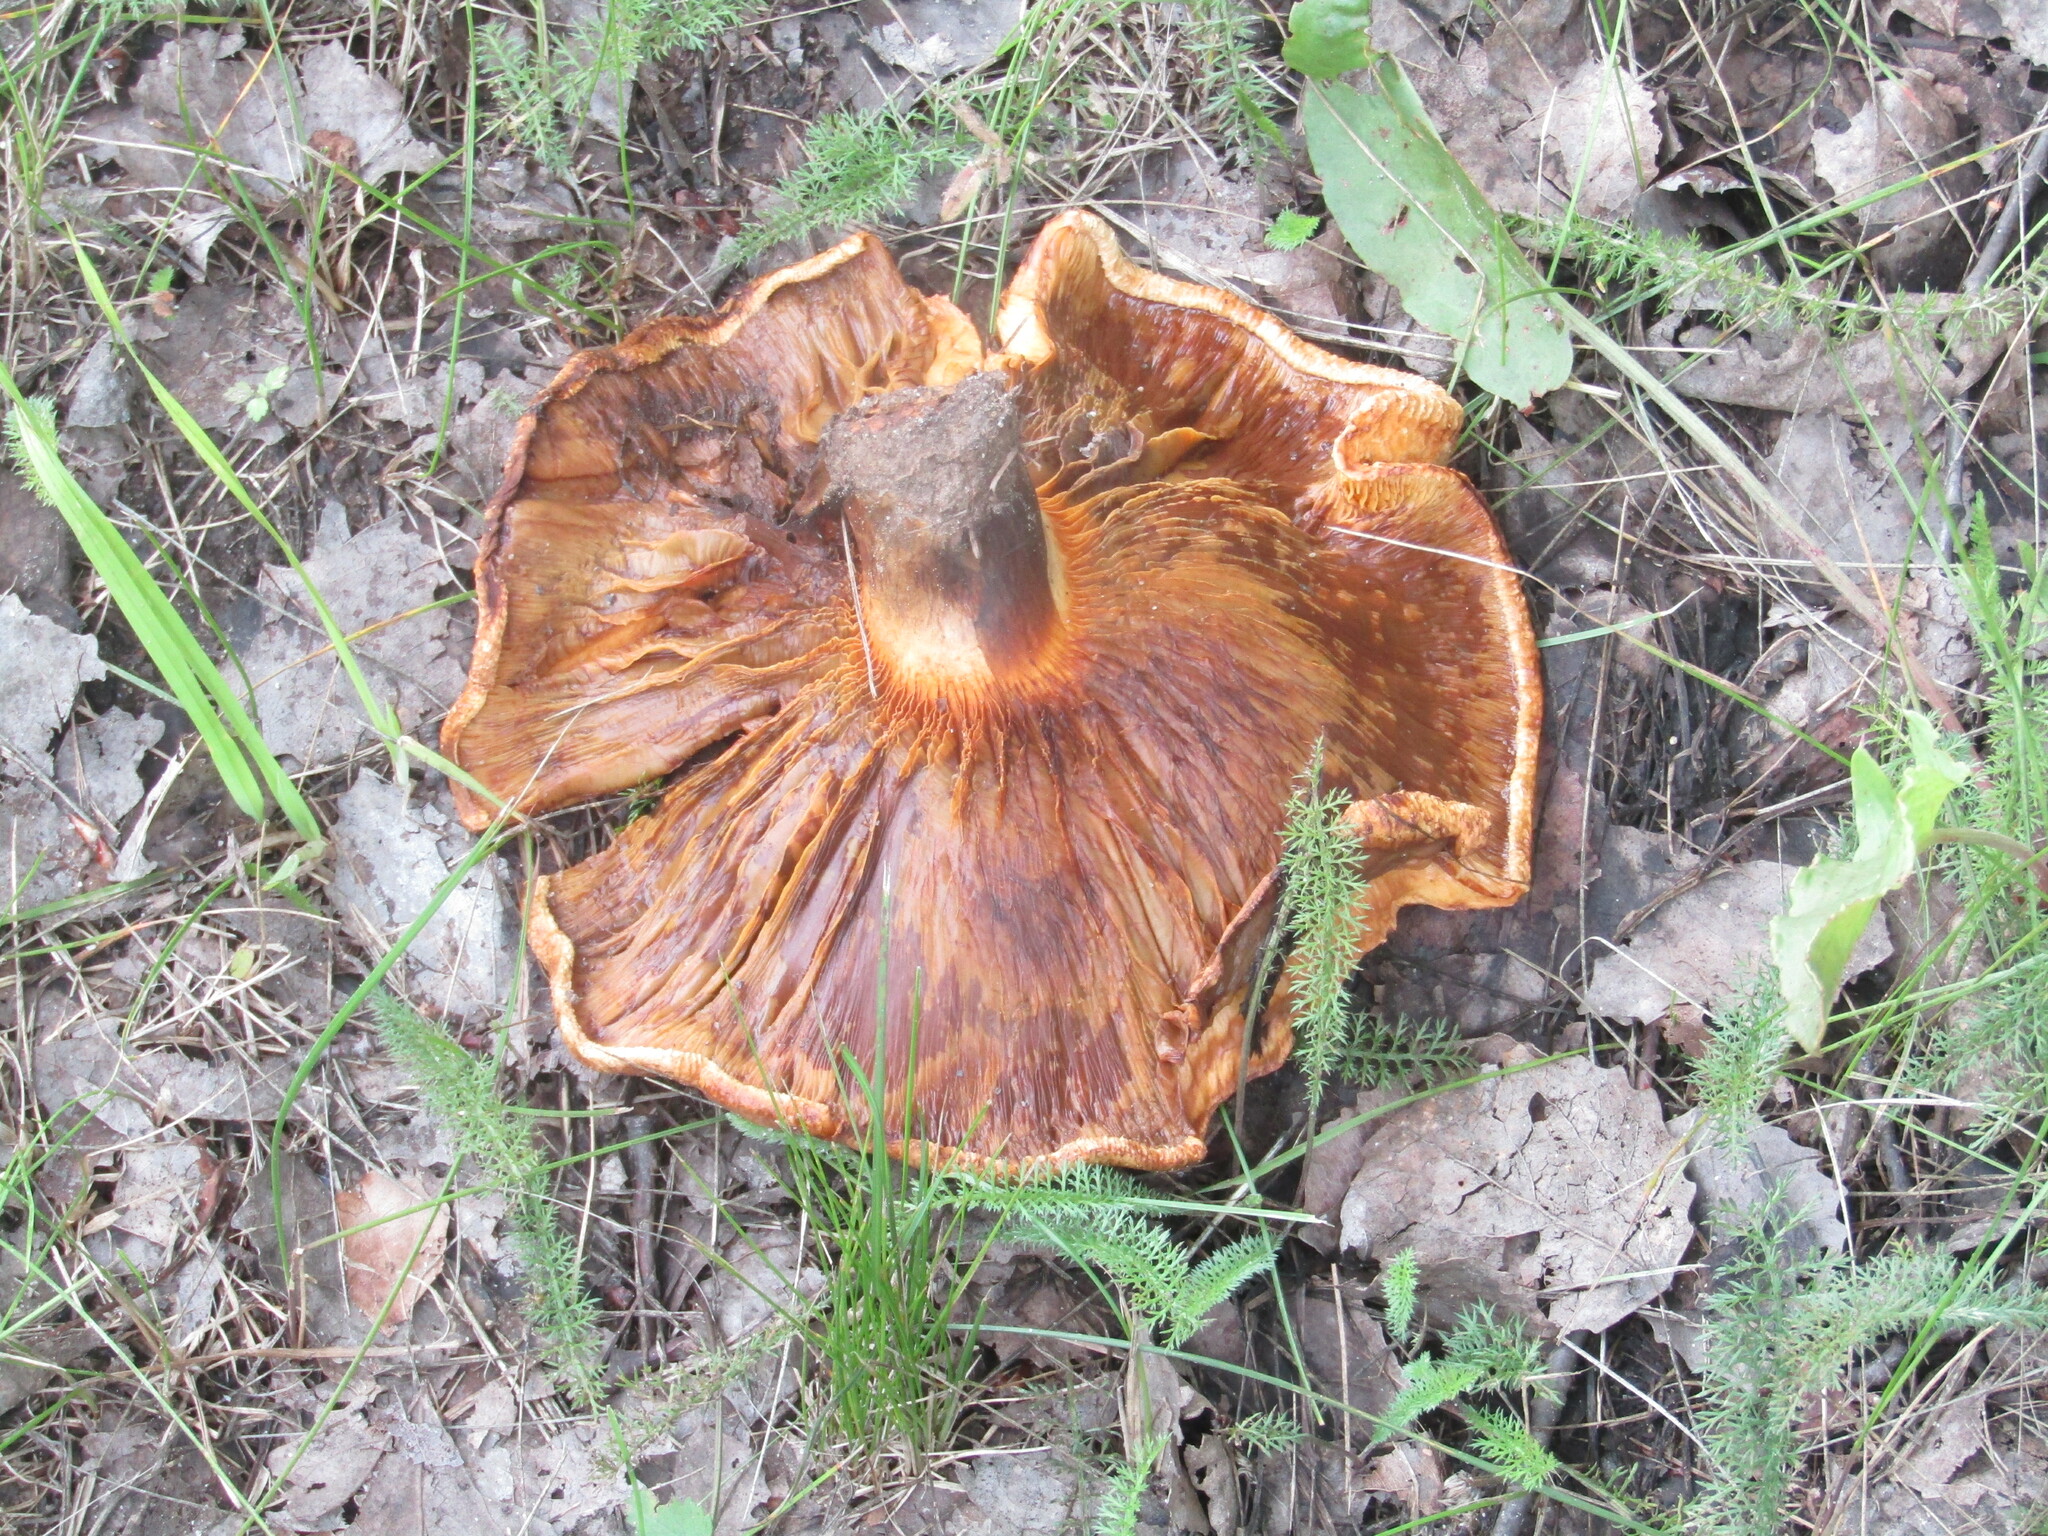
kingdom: Fungi
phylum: Basidiomycota
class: Agaricomycetes
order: Boletales
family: Paxillaceae
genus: Paxillus
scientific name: Paxillus involutus
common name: Brown roll rim
